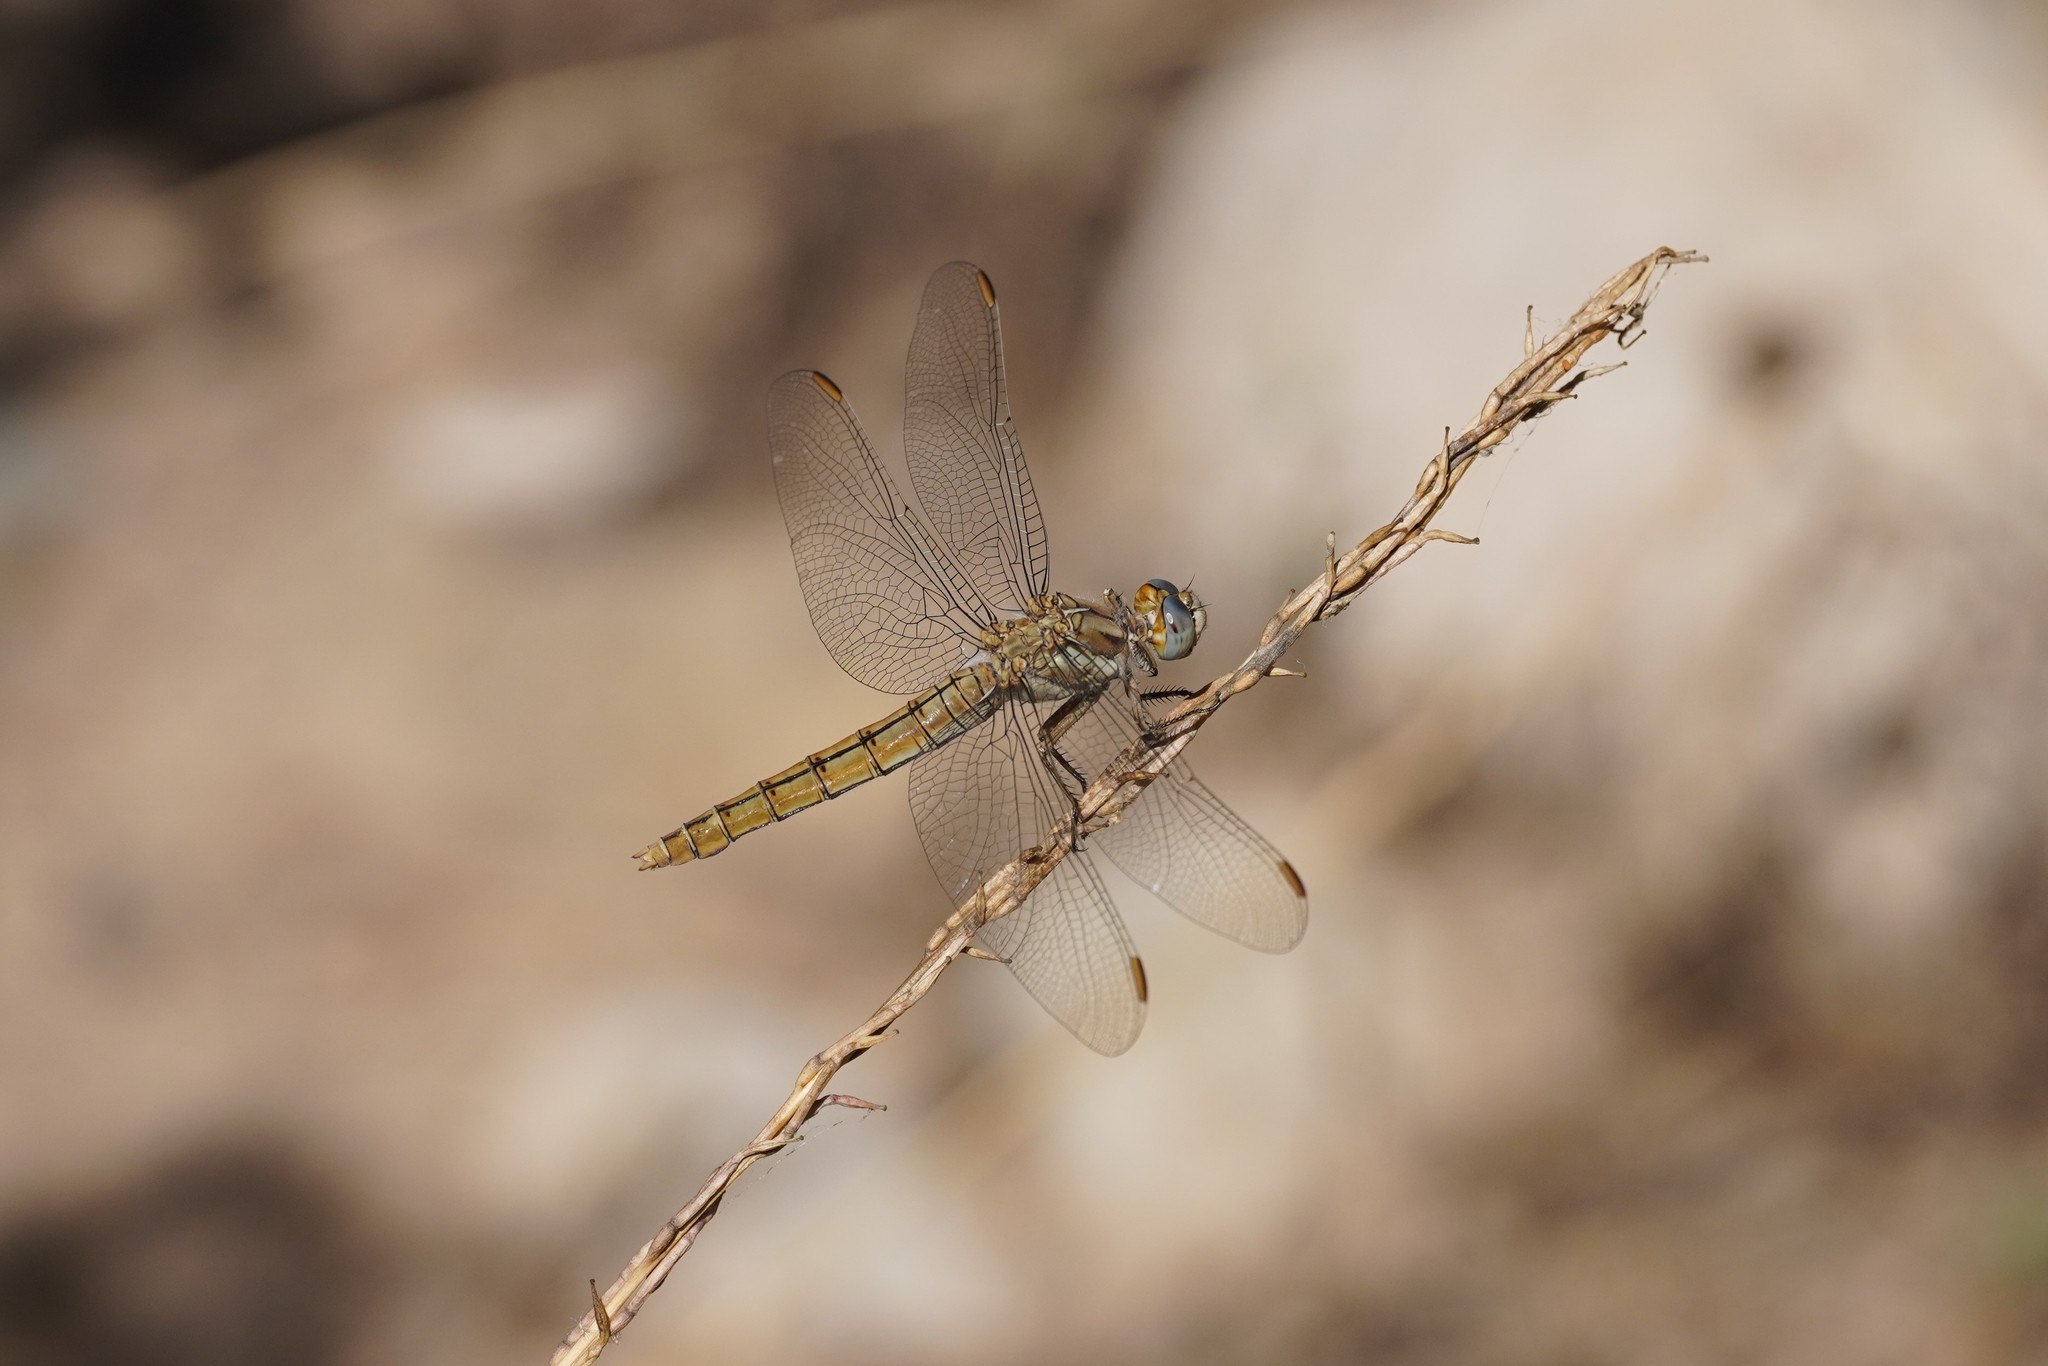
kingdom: Animalia
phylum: Arthropoda
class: Insecta
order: Odonata
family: Libellulidae
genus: Orthetrum
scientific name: Orthetrum brunneum
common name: Southern skimmer
